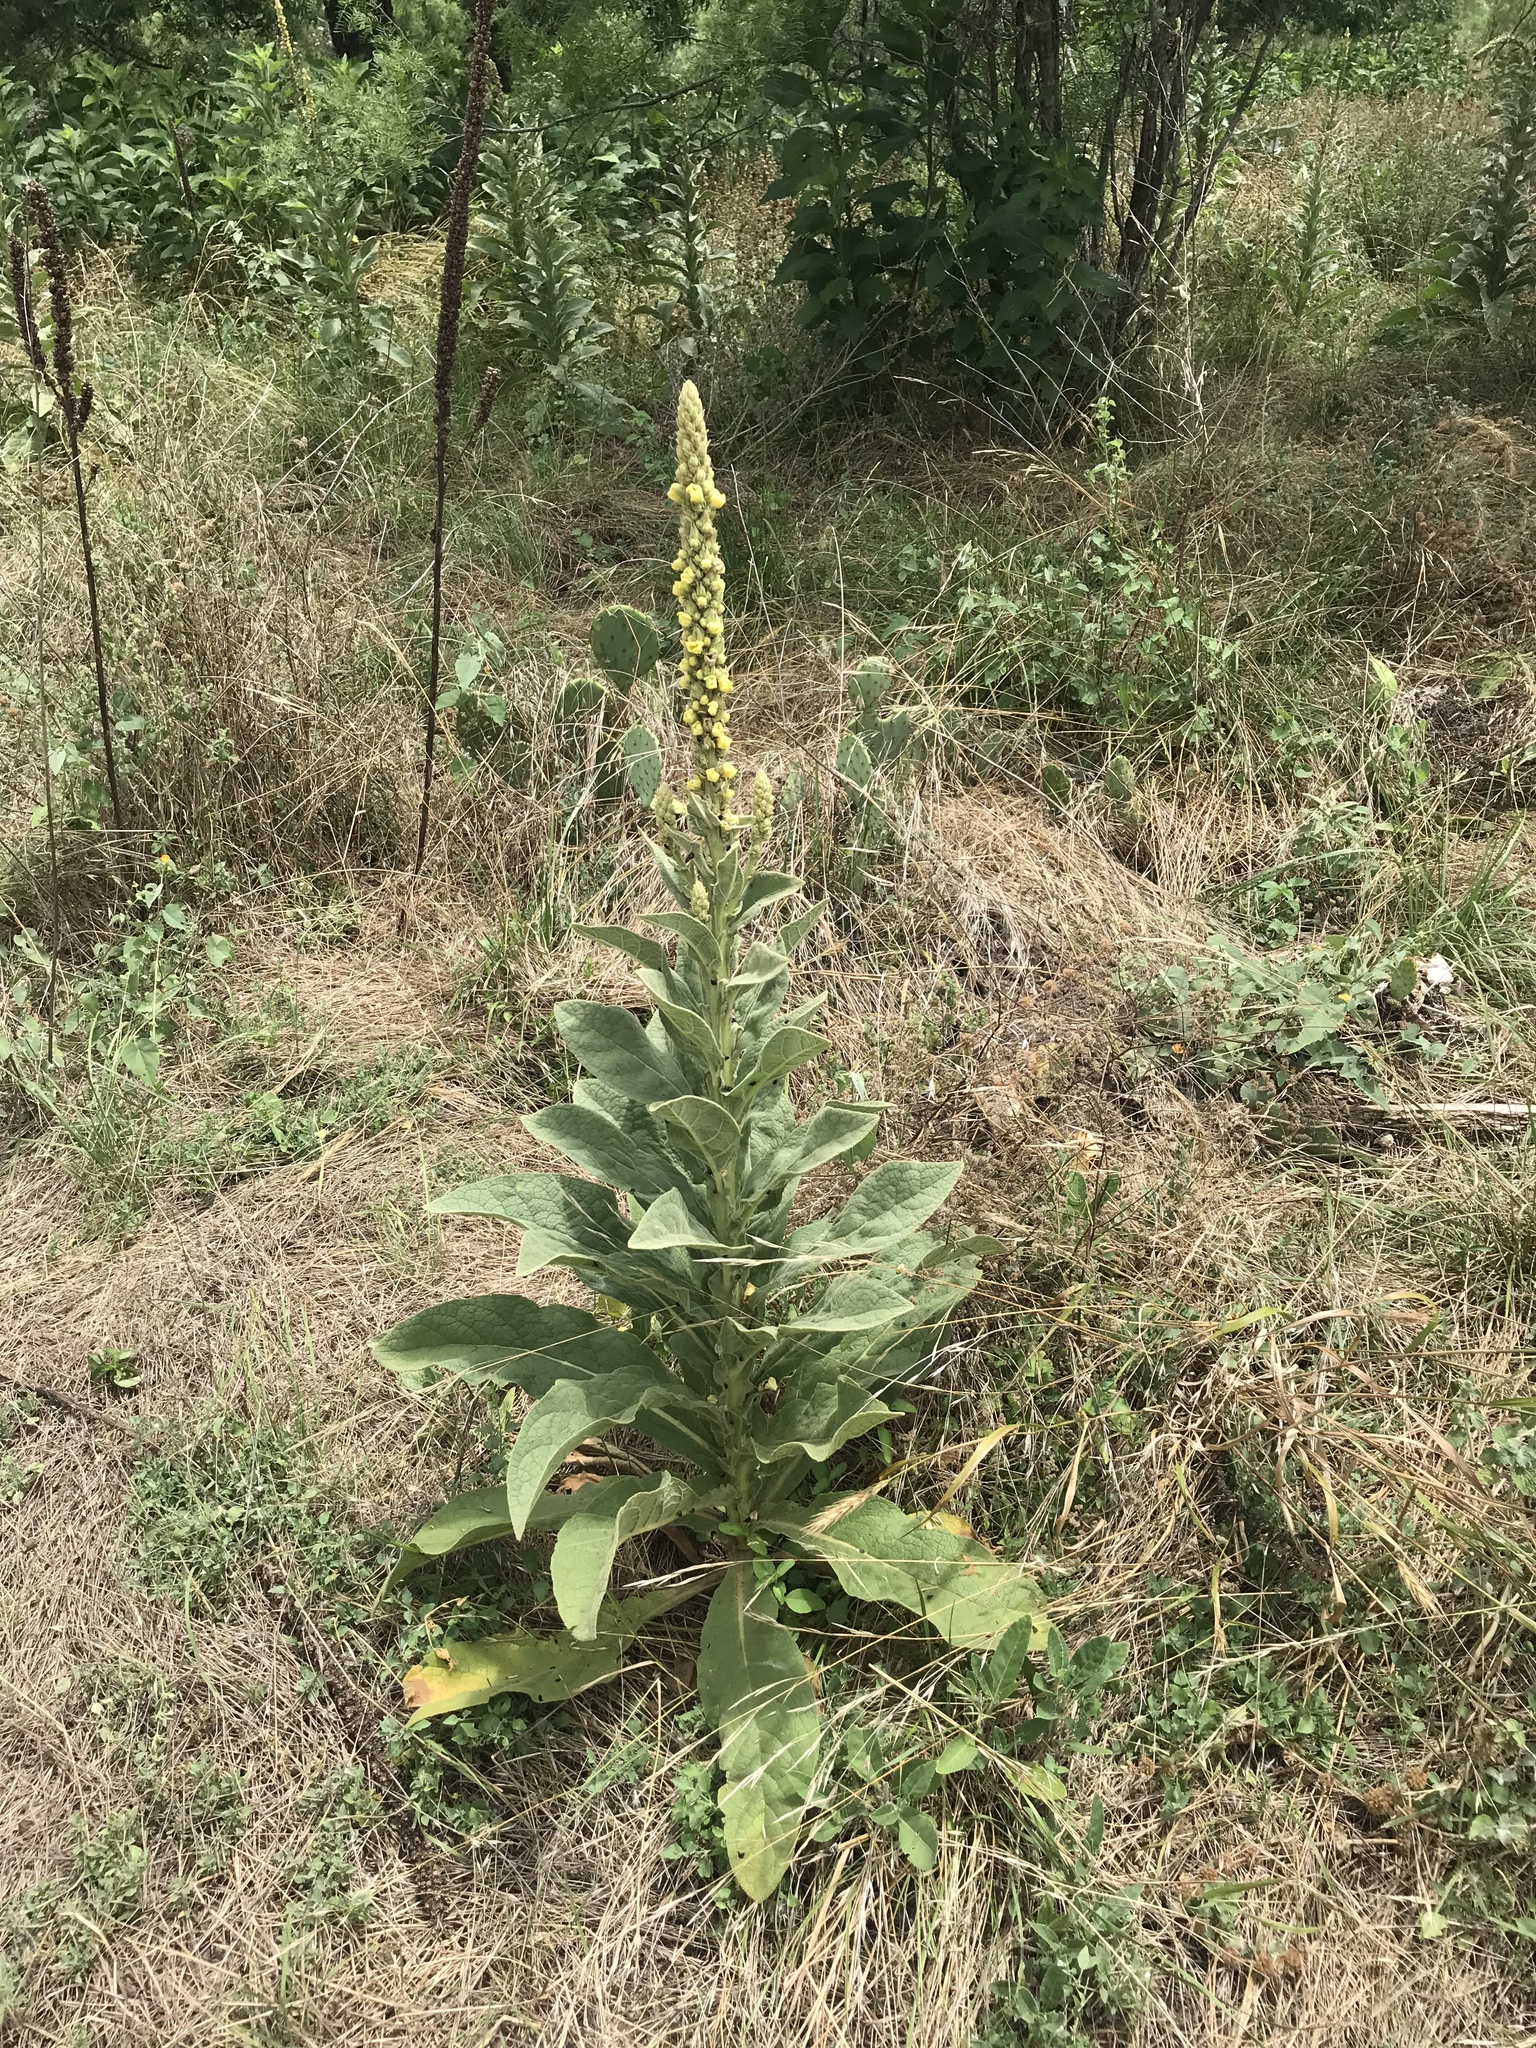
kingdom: Plantae
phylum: Tracheophyta
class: Magnoliopsida
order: Lamiales
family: Scrophulariaceae
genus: Verbascum
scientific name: Verbascum thapsus
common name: Common mullein
